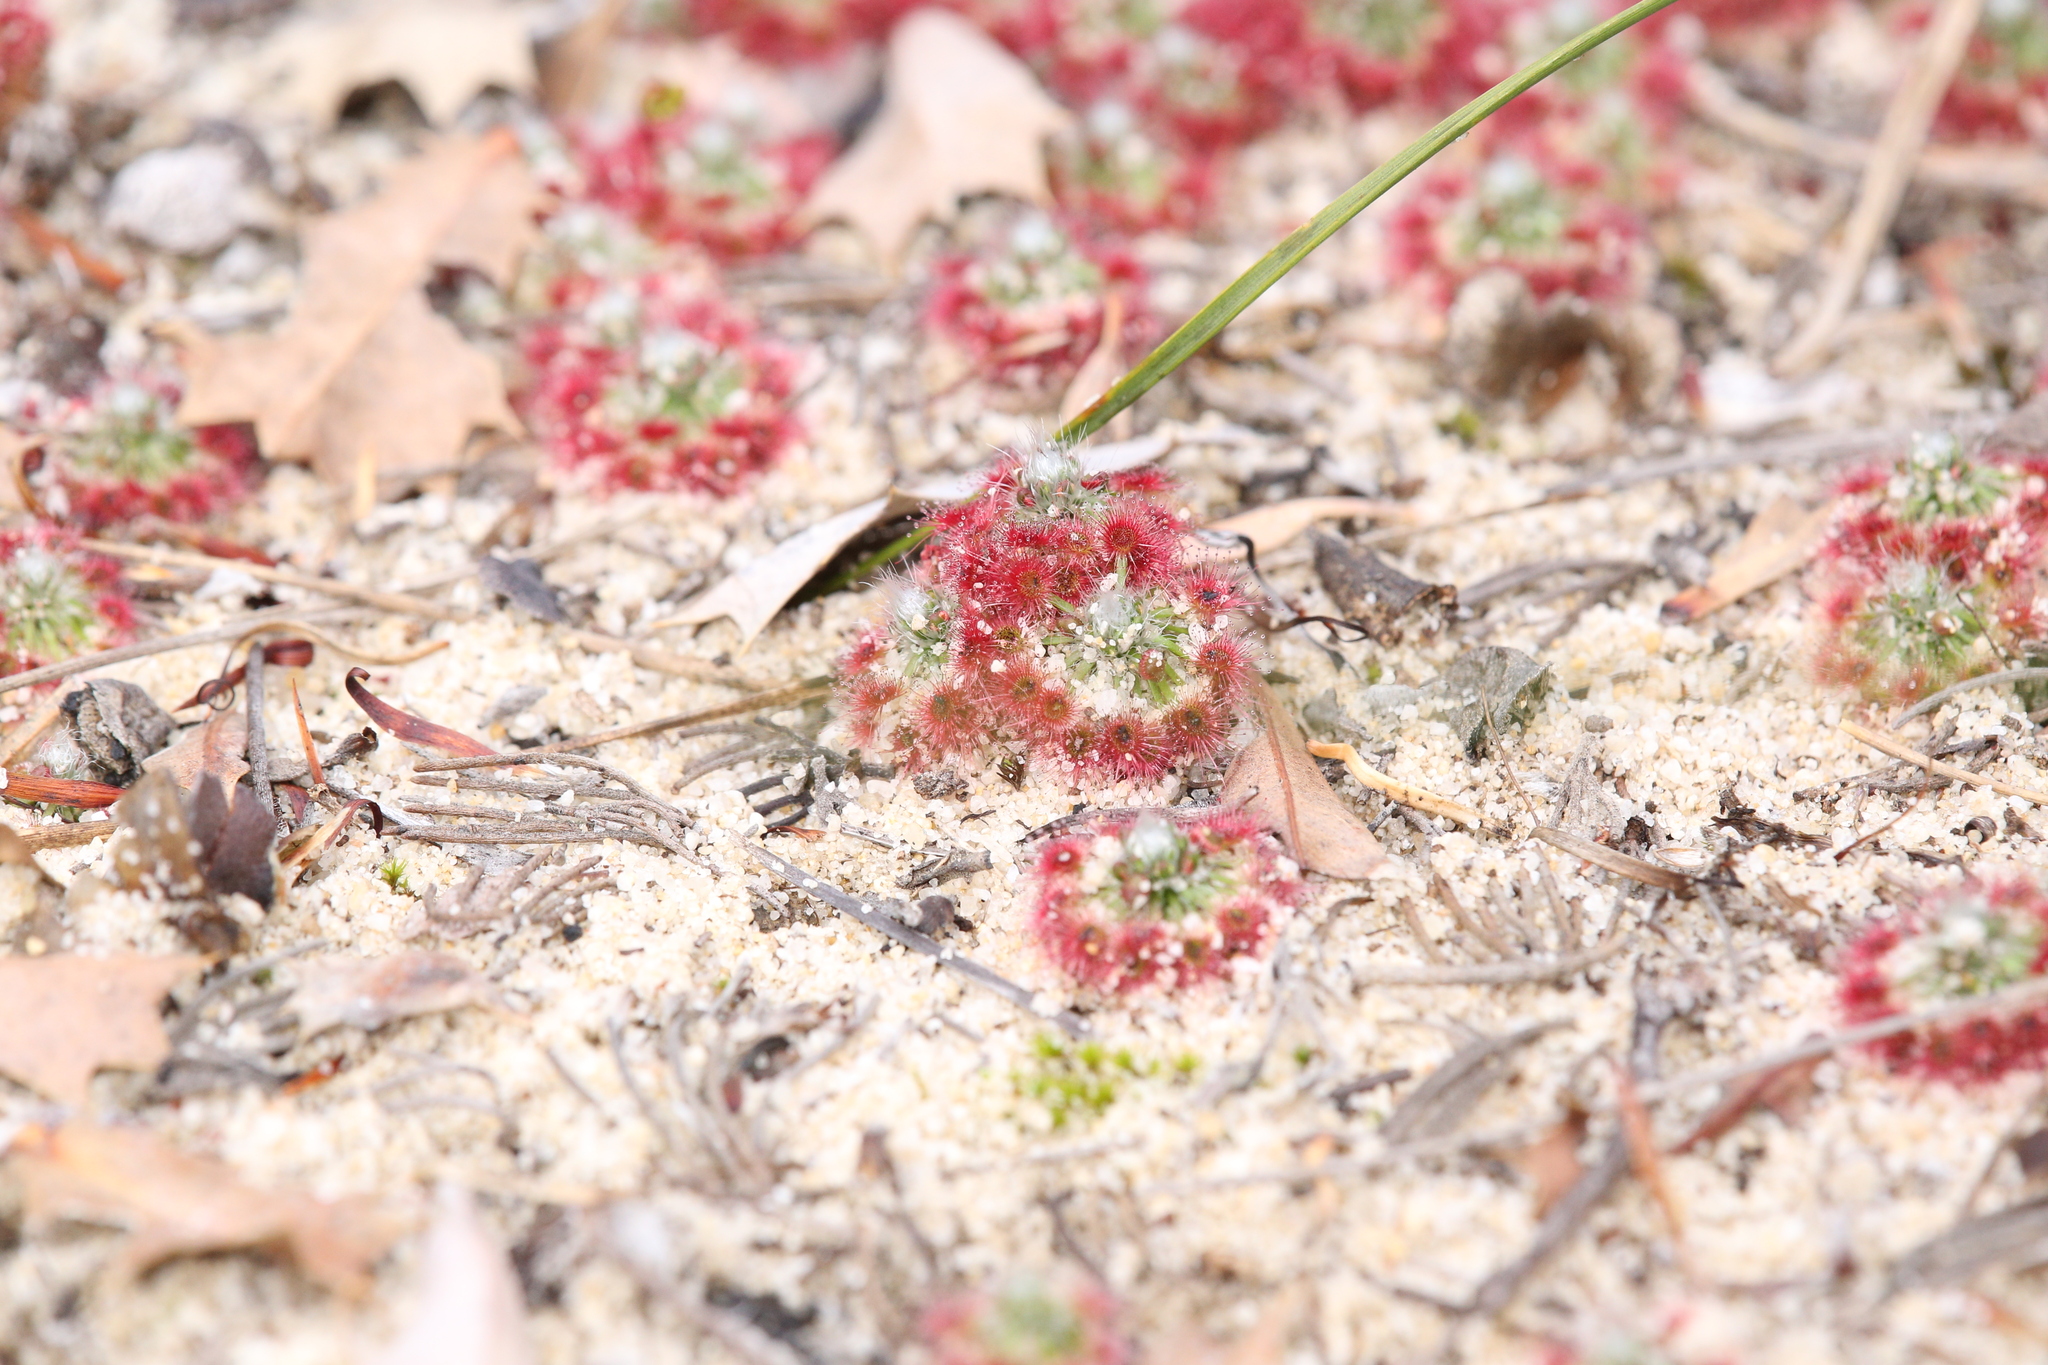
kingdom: Plantae
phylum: Tracheophyta
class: Magnoliopsida
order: Caryophyllales
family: Droseraceae
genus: Drosera
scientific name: Drosera paleacea
